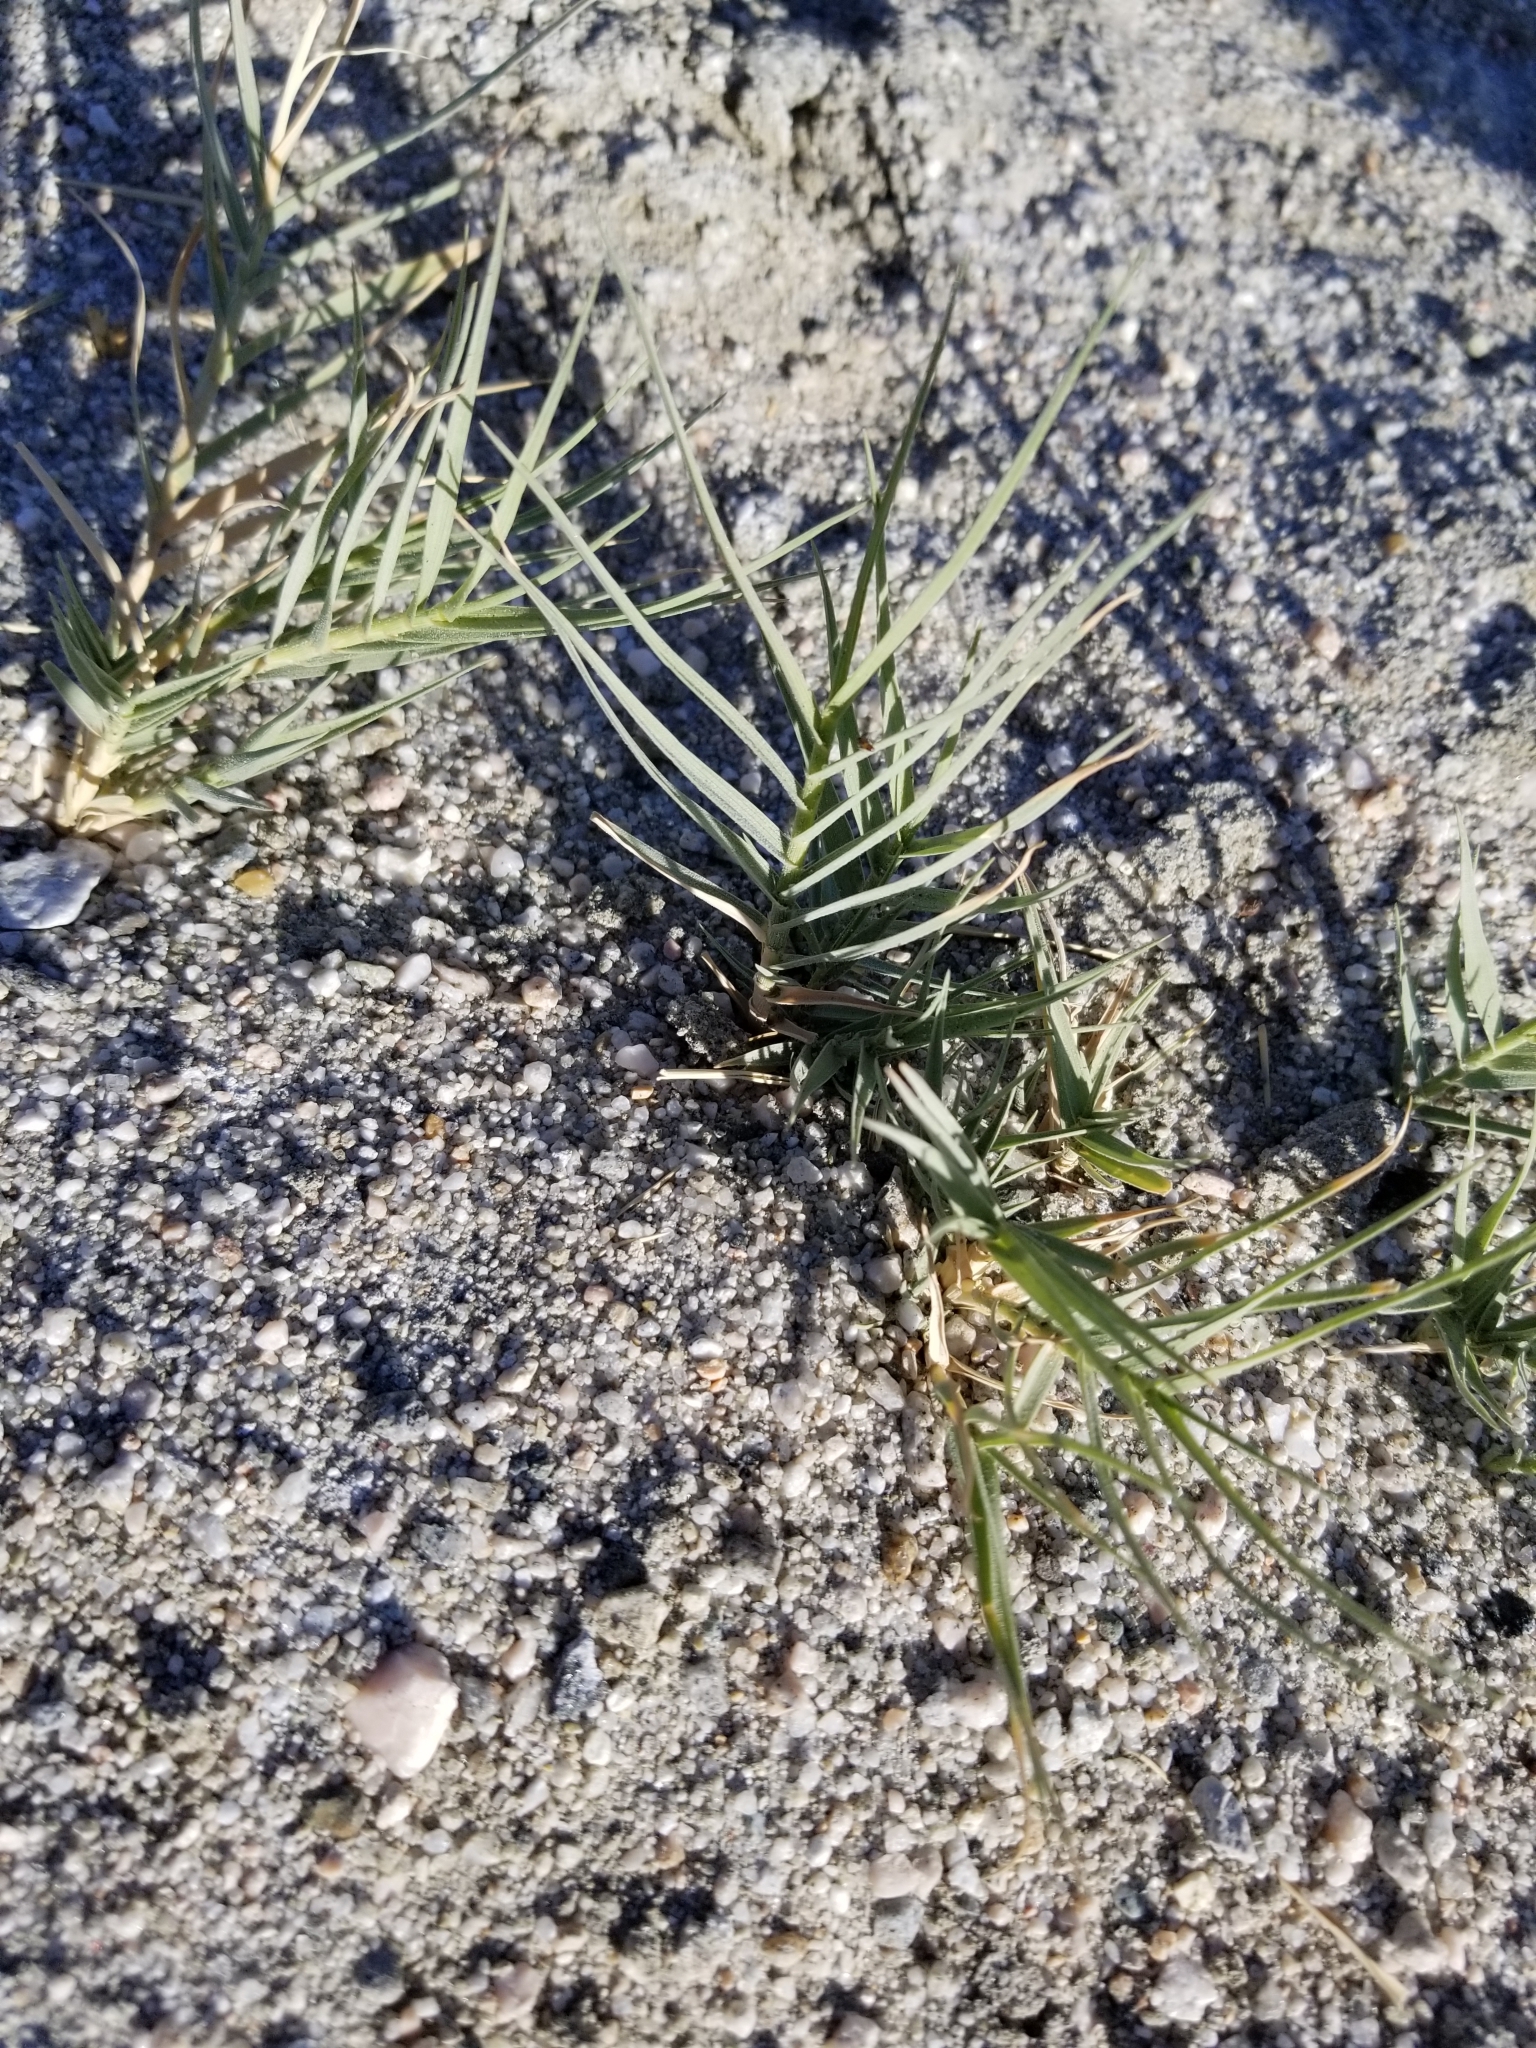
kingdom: Plantae
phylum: Tracheophyta
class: Liliopsida
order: Poales
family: Poaceae
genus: Distichlis
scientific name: Distichlis spicata
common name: Saltgrass
